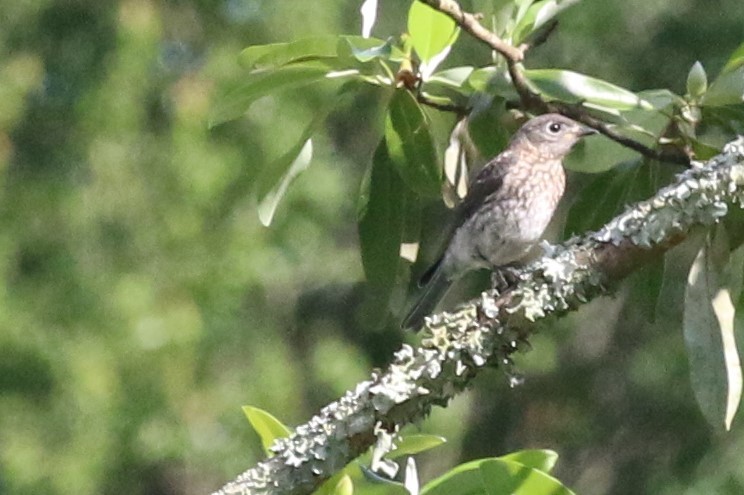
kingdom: Animalia
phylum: Chordata
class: Aves
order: Passeriformes
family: Turdidae
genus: Sialia
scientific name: Sialia sialis
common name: Eastern bluebird
